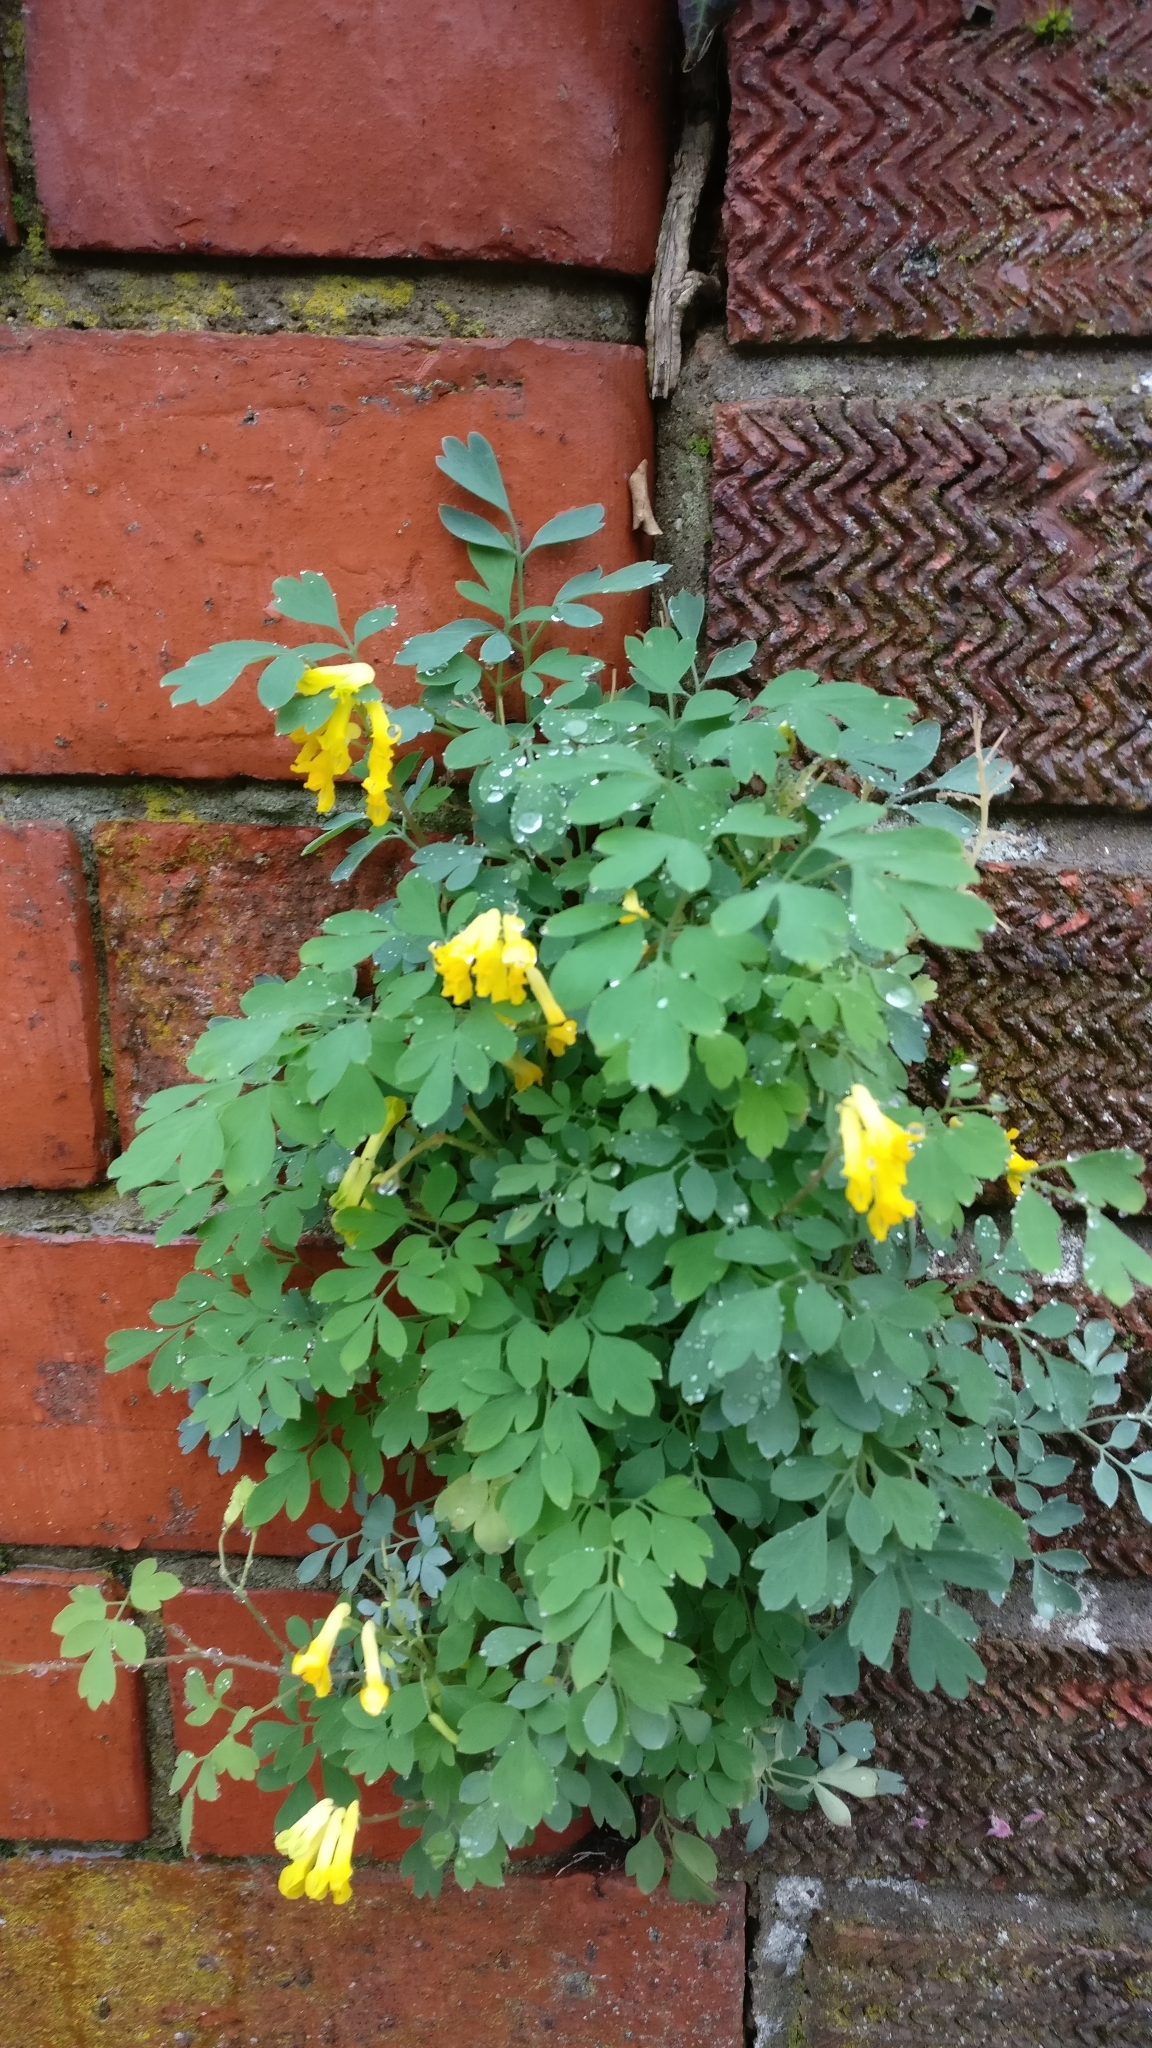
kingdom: Plantae
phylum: Tracheophyta
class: Magnoliopsida
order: Ranunculales
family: Papaveraceae
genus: Pseudofumaria
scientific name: Pseudofumaria lutea
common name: Yellow corydalis
